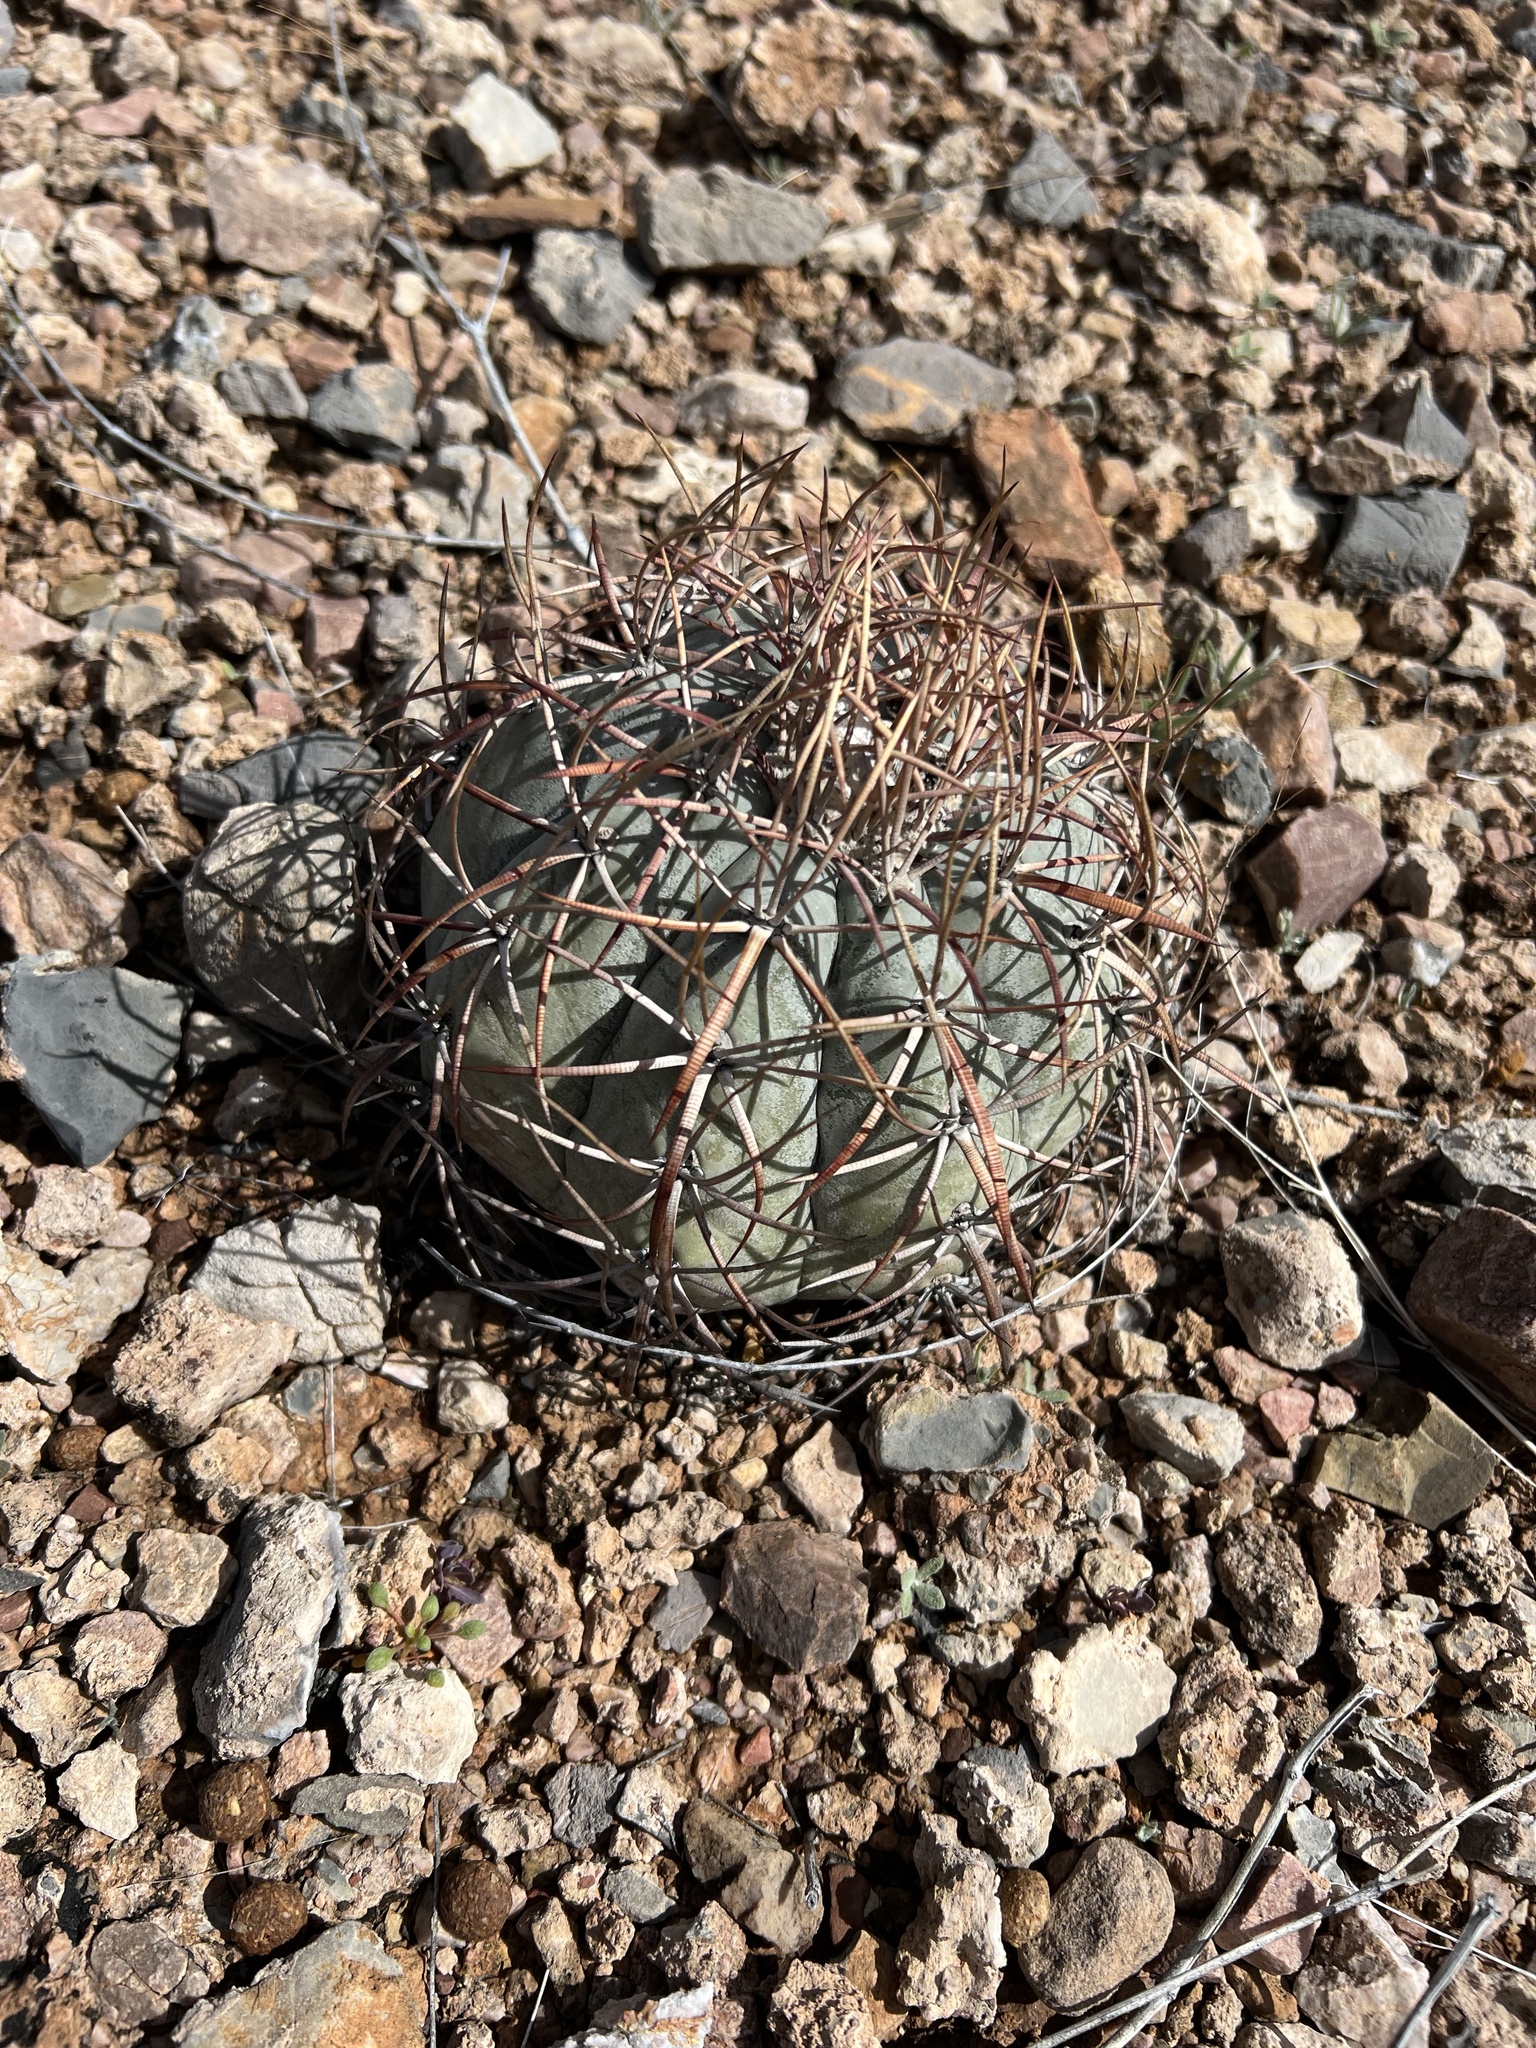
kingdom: Plantae
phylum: Tracheophyta
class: Magnoliopsida
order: Caryophyllales
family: Cactaceae
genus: Echinocactus
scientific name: Echinocactus horizonthalonius
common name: Devilshead
